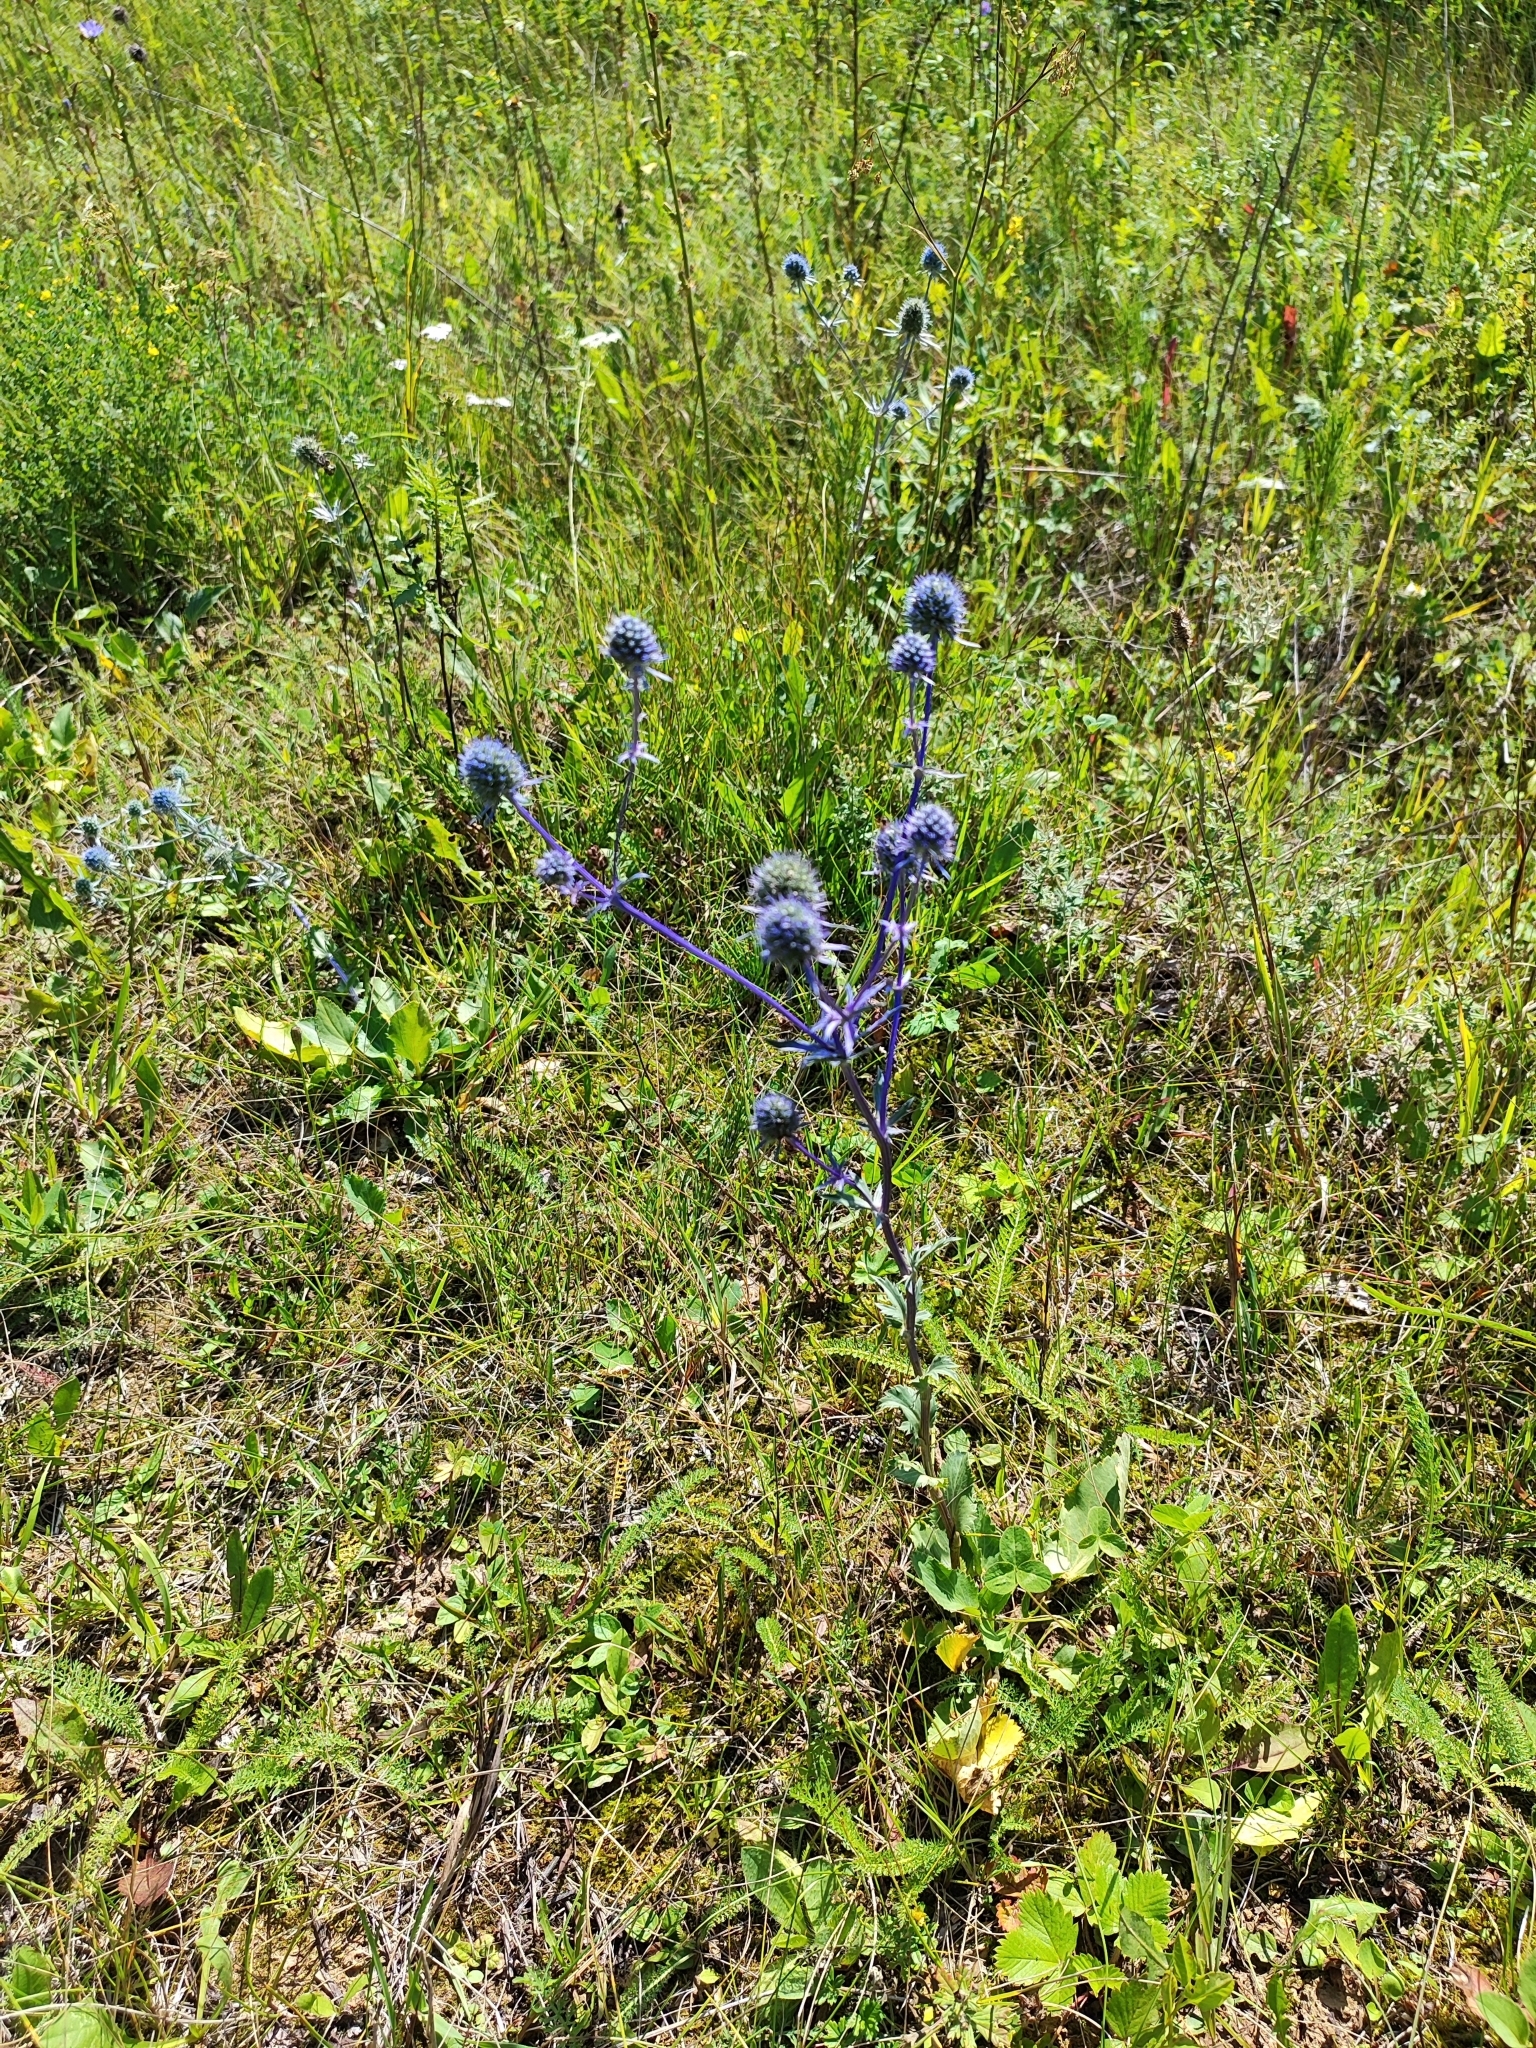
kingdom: Plantae
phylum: Tracheophyta
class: Magnoliopsida
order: Apiales
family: Apiaceae
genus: Eryngium
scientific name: Eryngium planum
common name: Blue eryngo
